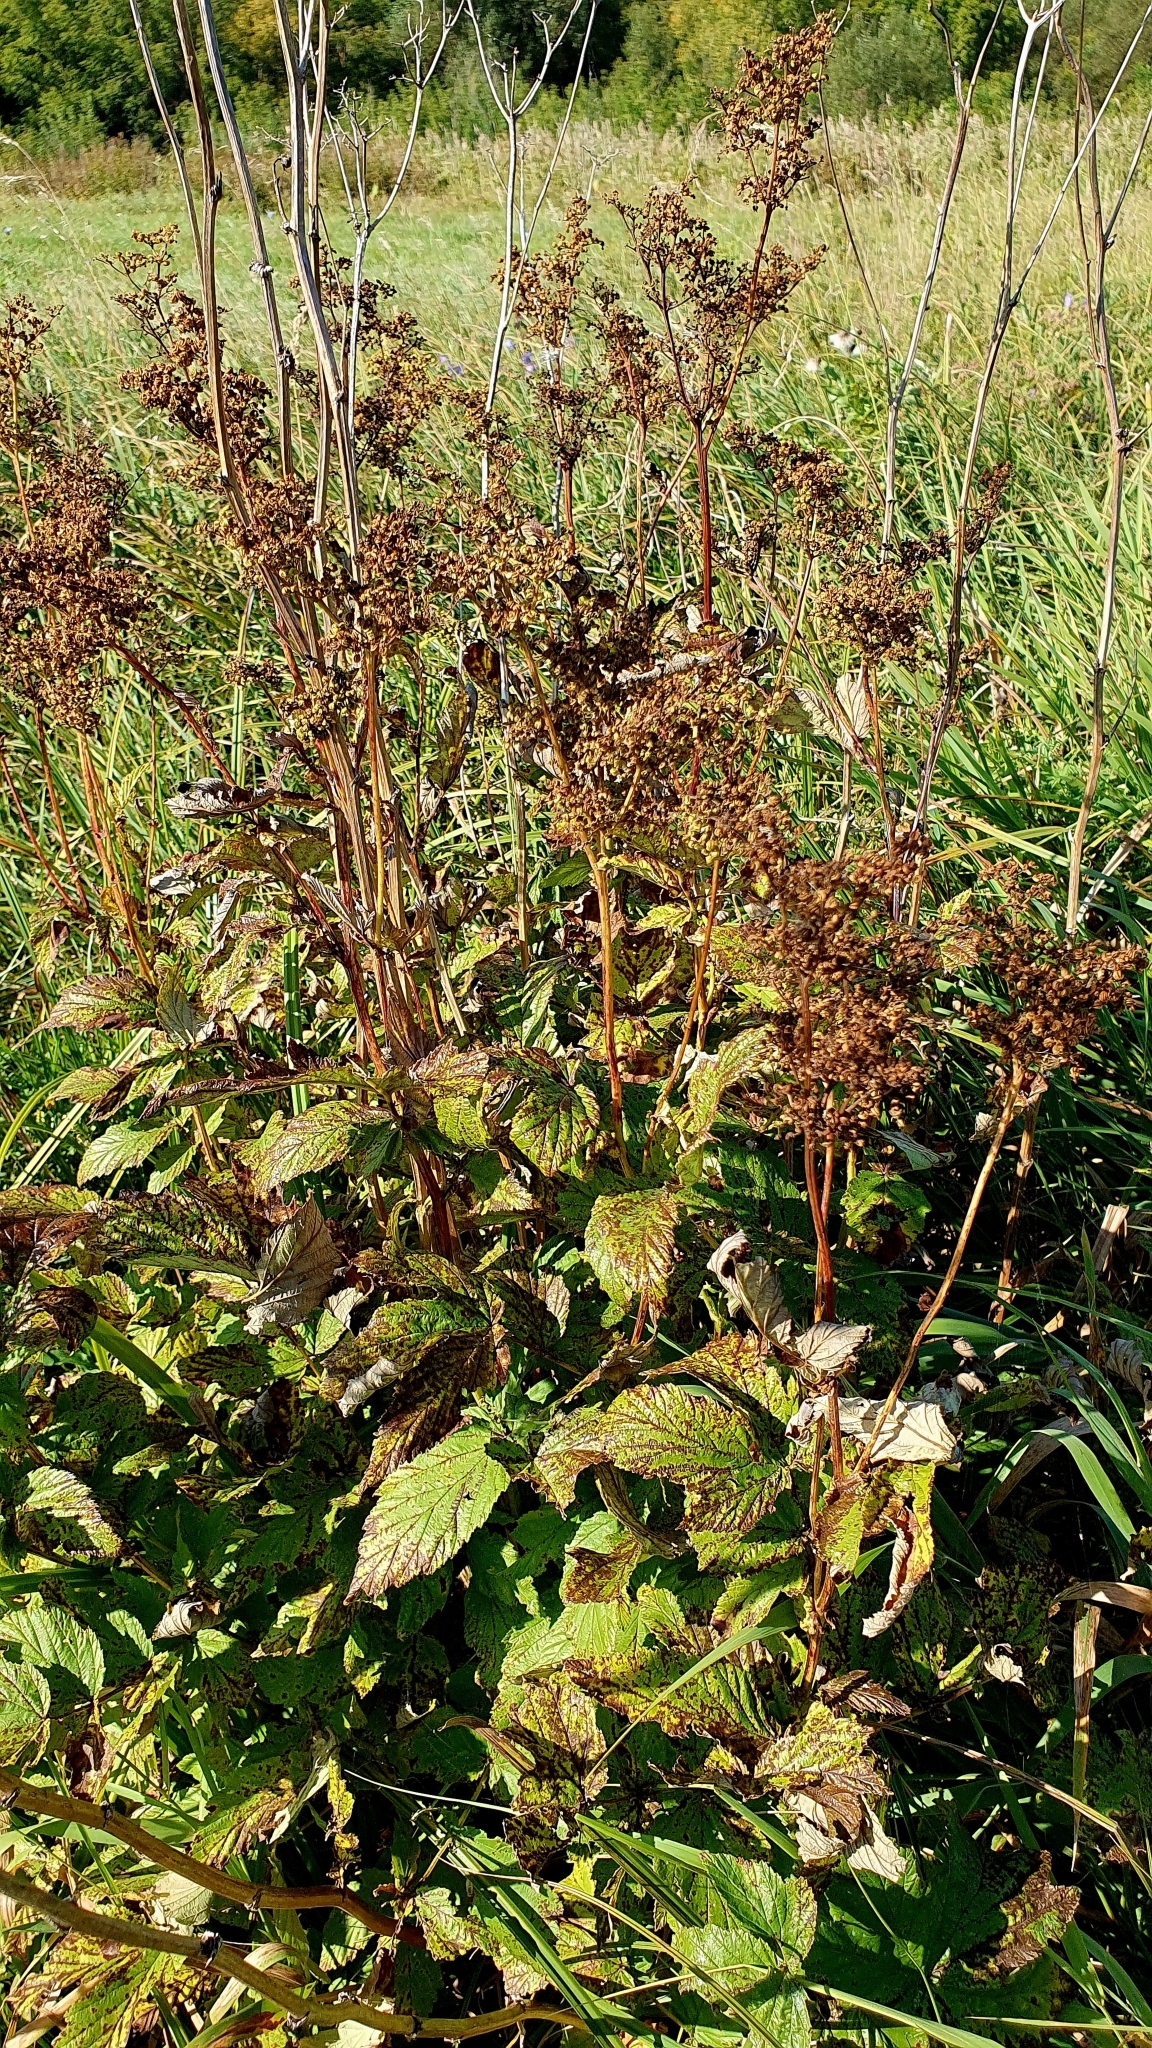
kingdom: Plantae
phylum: Tracheophyta
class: Magnoliopsida
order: Rosales
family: Rosaceae
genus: Filipendula
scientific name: Filipendula ulmaria
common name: Meadowsweet
